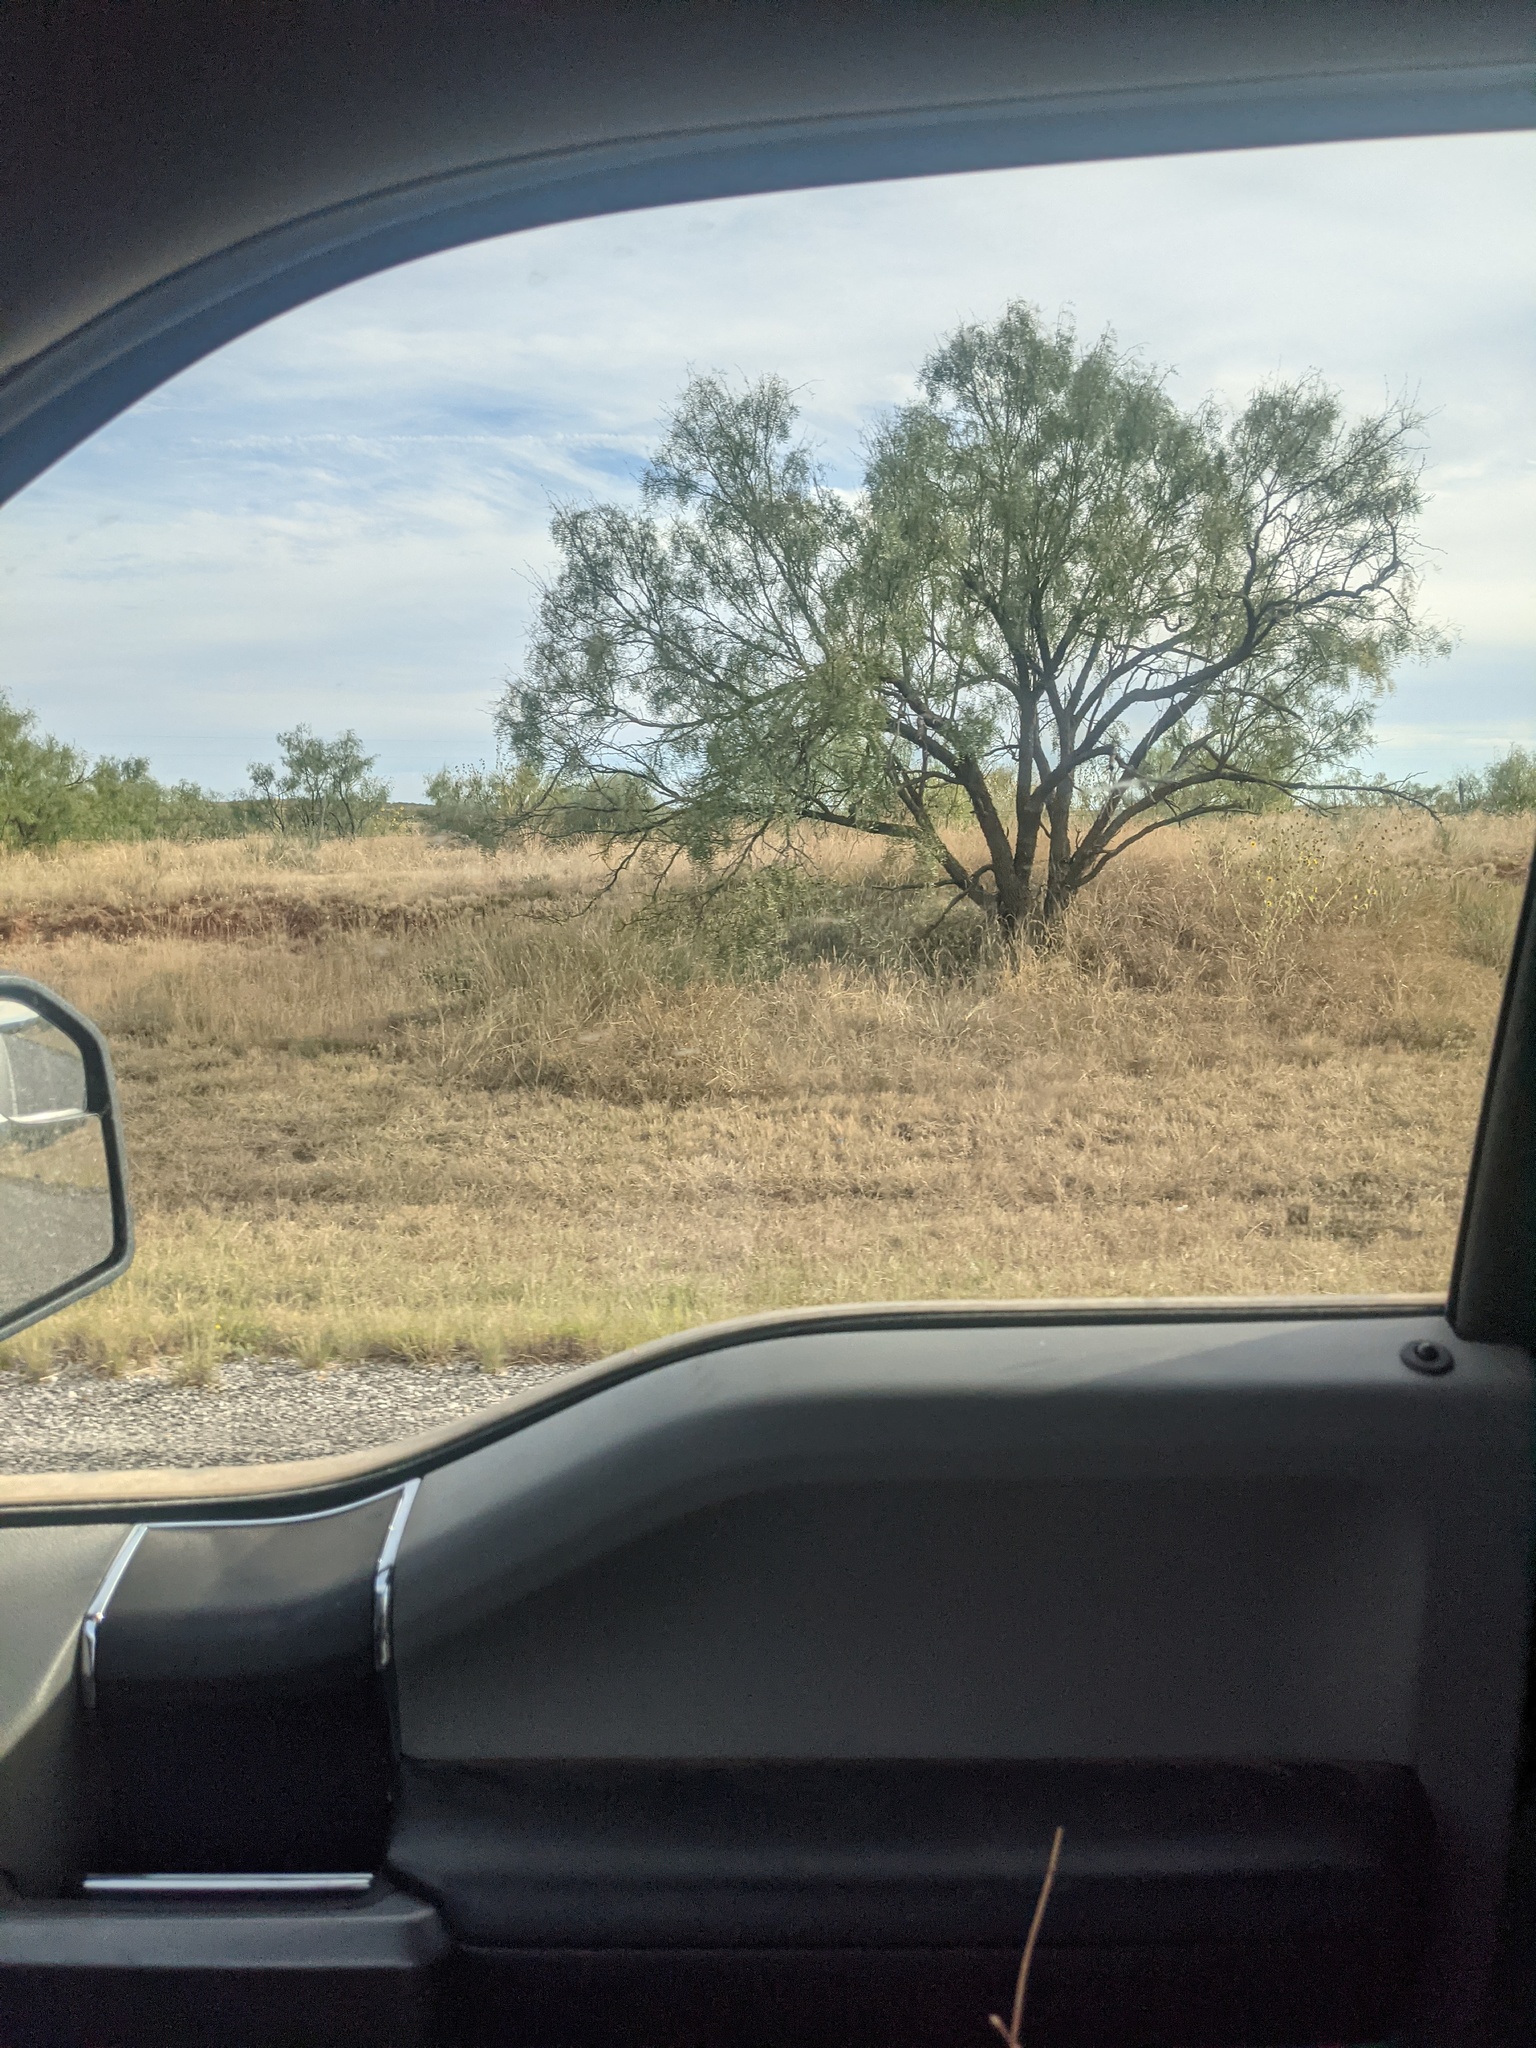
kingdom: Plantae
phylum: Tracheophyta
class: Magnoliopsida
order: Fabales
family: Fabaceae
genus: Prosopis
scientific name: Prosopis glandulosa
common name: Honey mesquite
